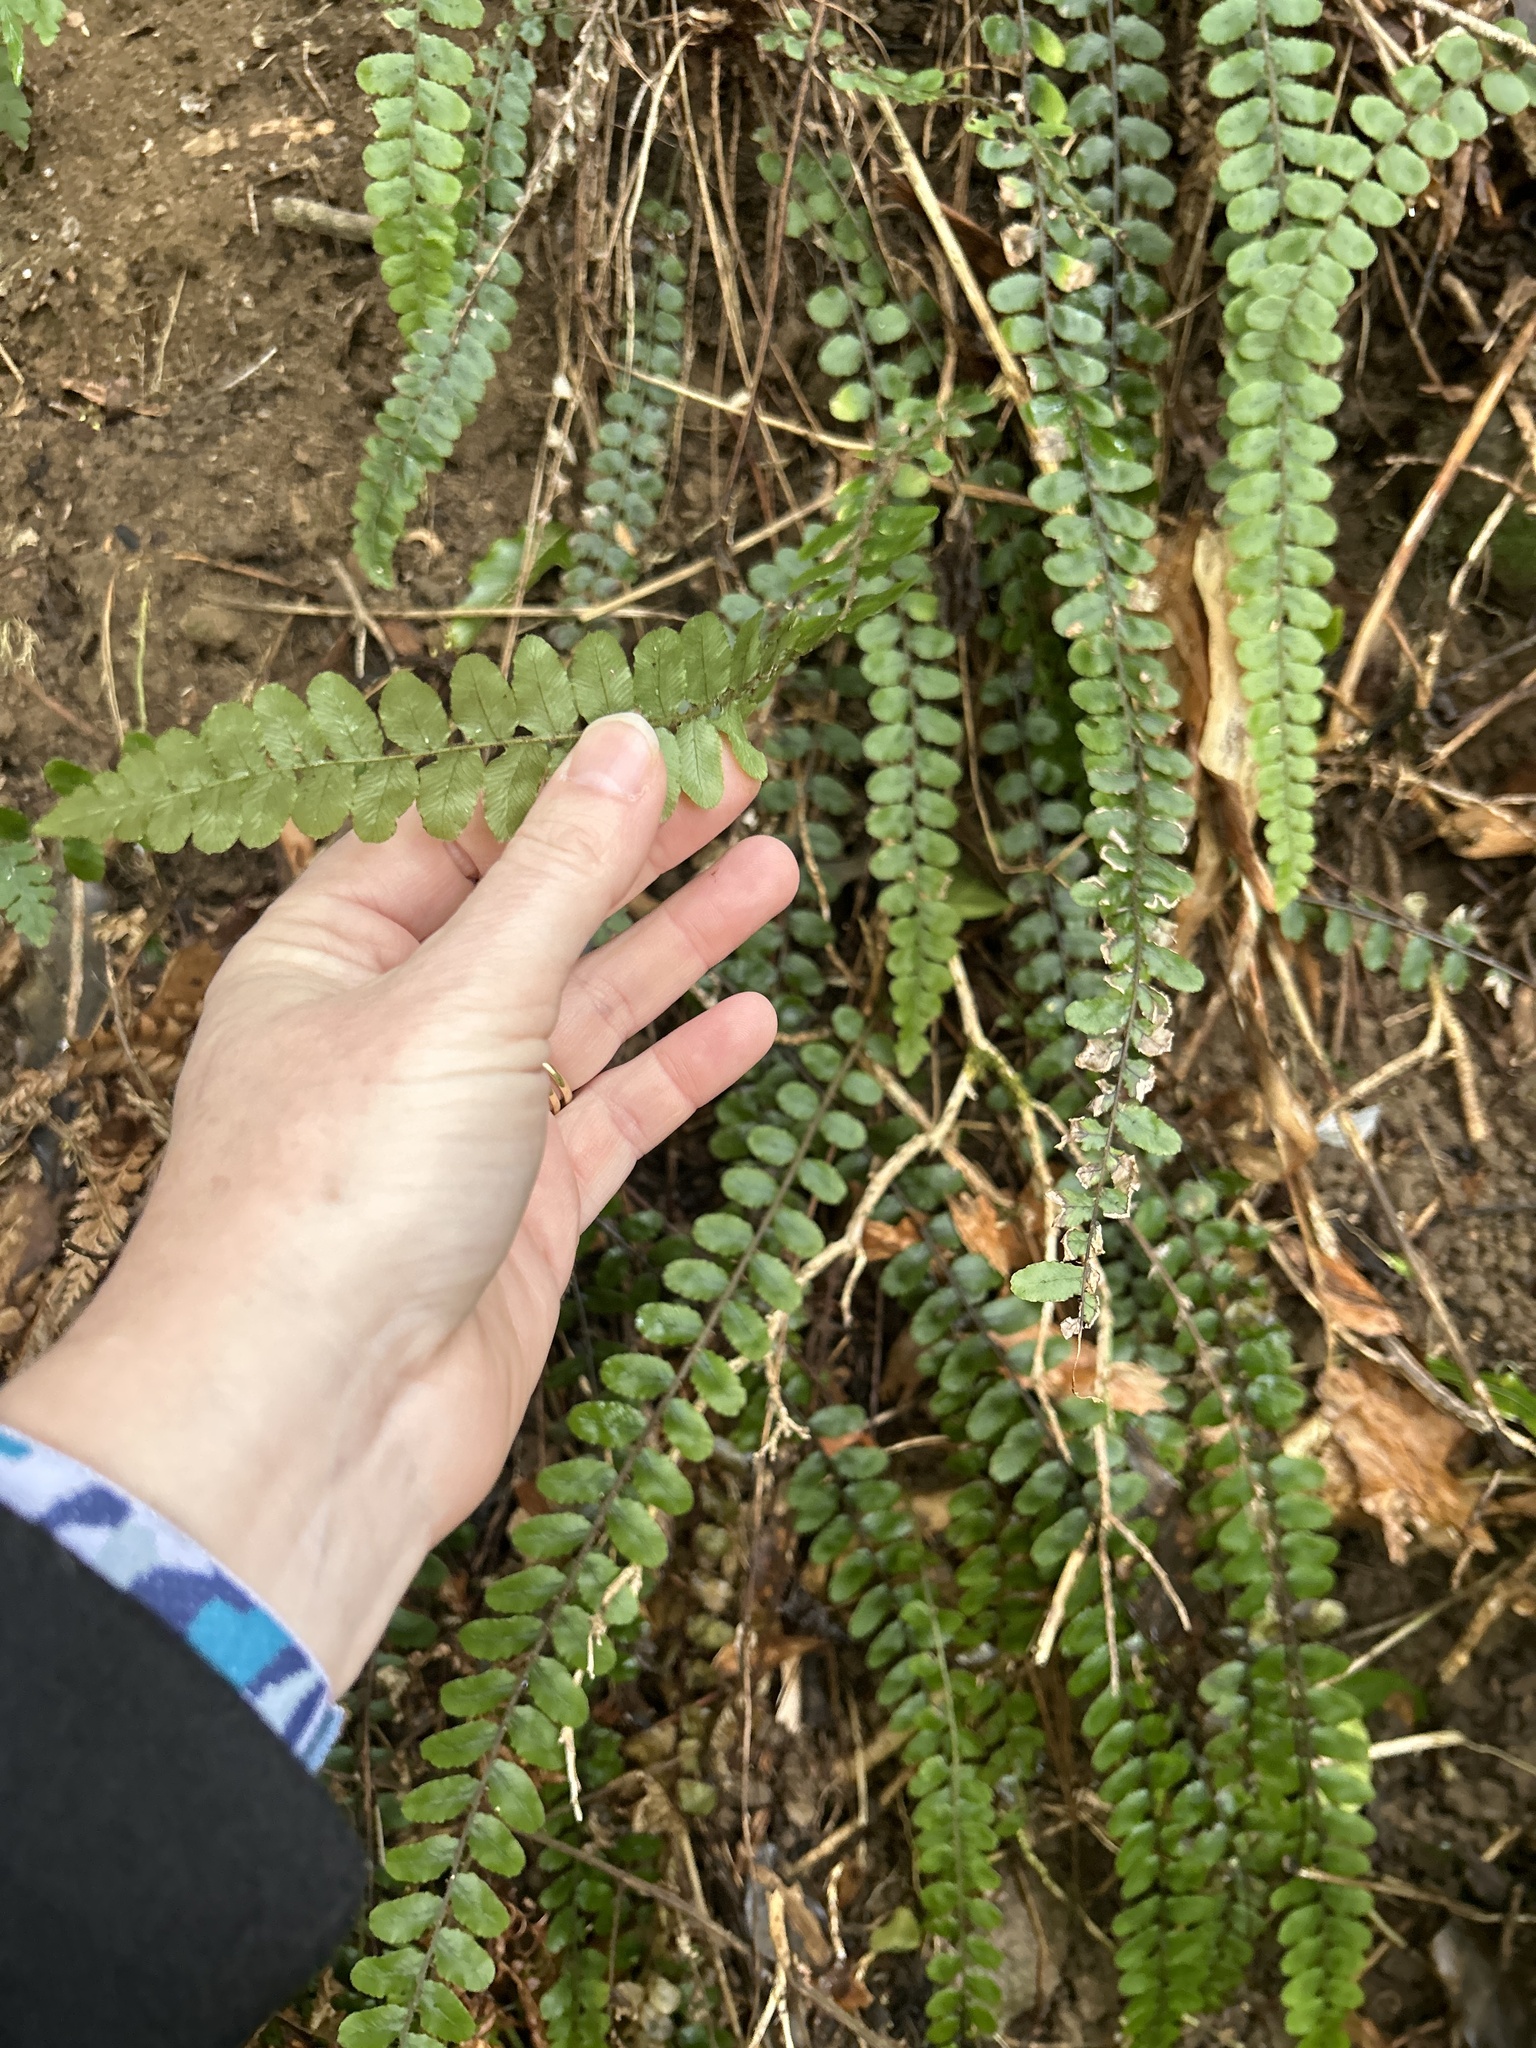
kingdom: Plantae
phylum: Tracheophyta
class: Polypodiopsida
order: Polypodiales
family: Blechnaceae
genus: Cranfillia
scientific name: Cranfillia fluviatilis
